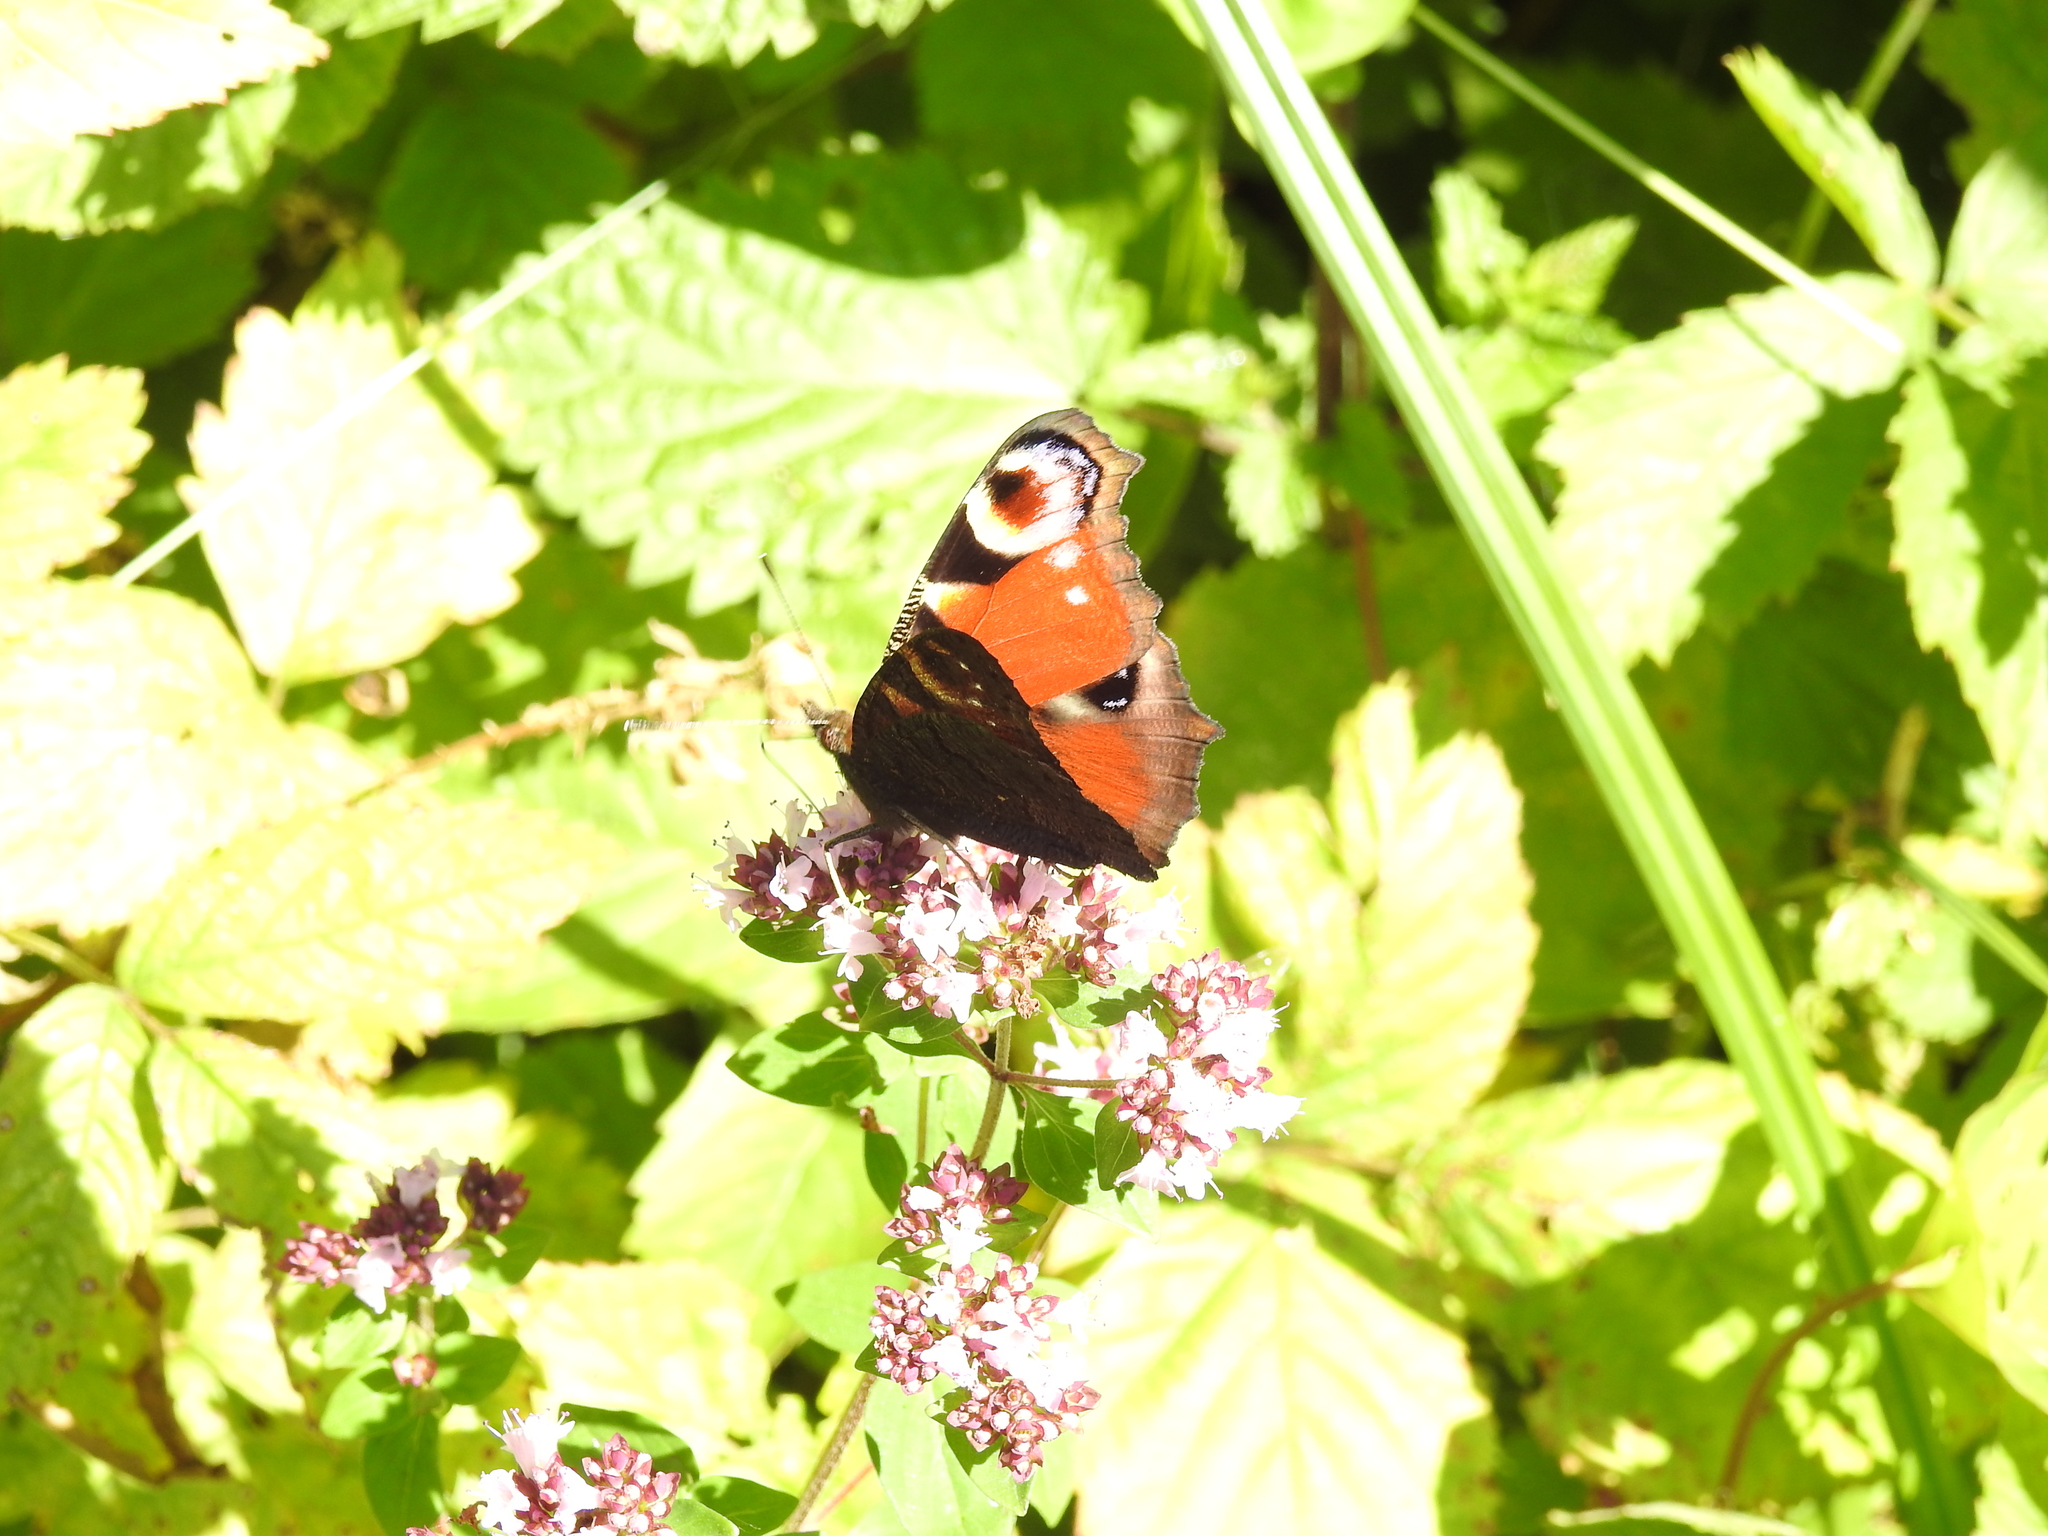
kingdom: Animalia
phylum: Arthropoda
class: Insecta
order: Lepidoptera
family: Nymphalidae
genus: Aglais
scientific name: Aglais io
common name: Peacock
